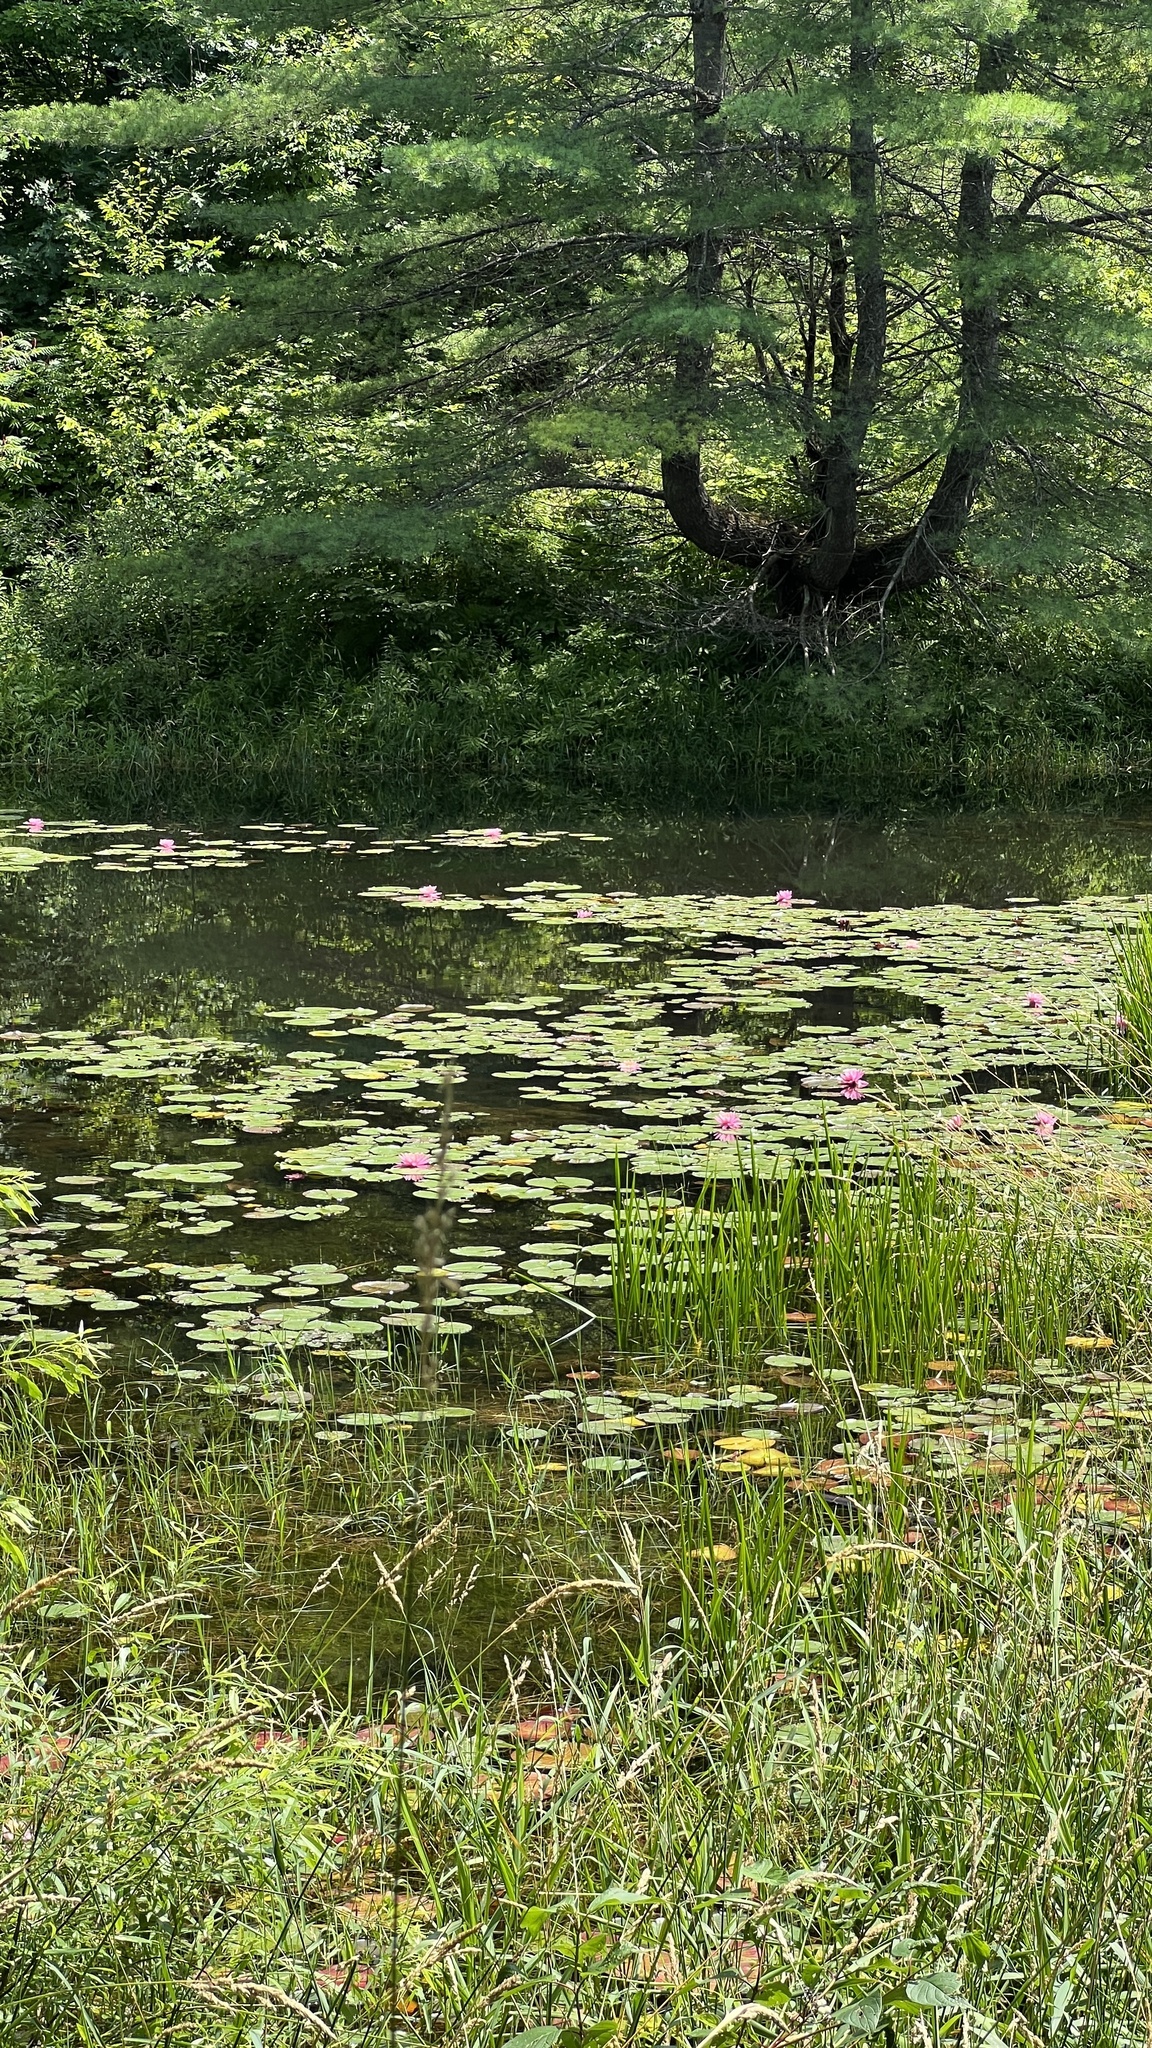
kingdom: Plantae
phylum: Tracheophyta
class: Magnoliopsida
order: Nymphaeales
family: Nymphaeaceae
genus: Nymphaea
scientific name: Nymphaea odorata
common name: Fragrant water-lily
